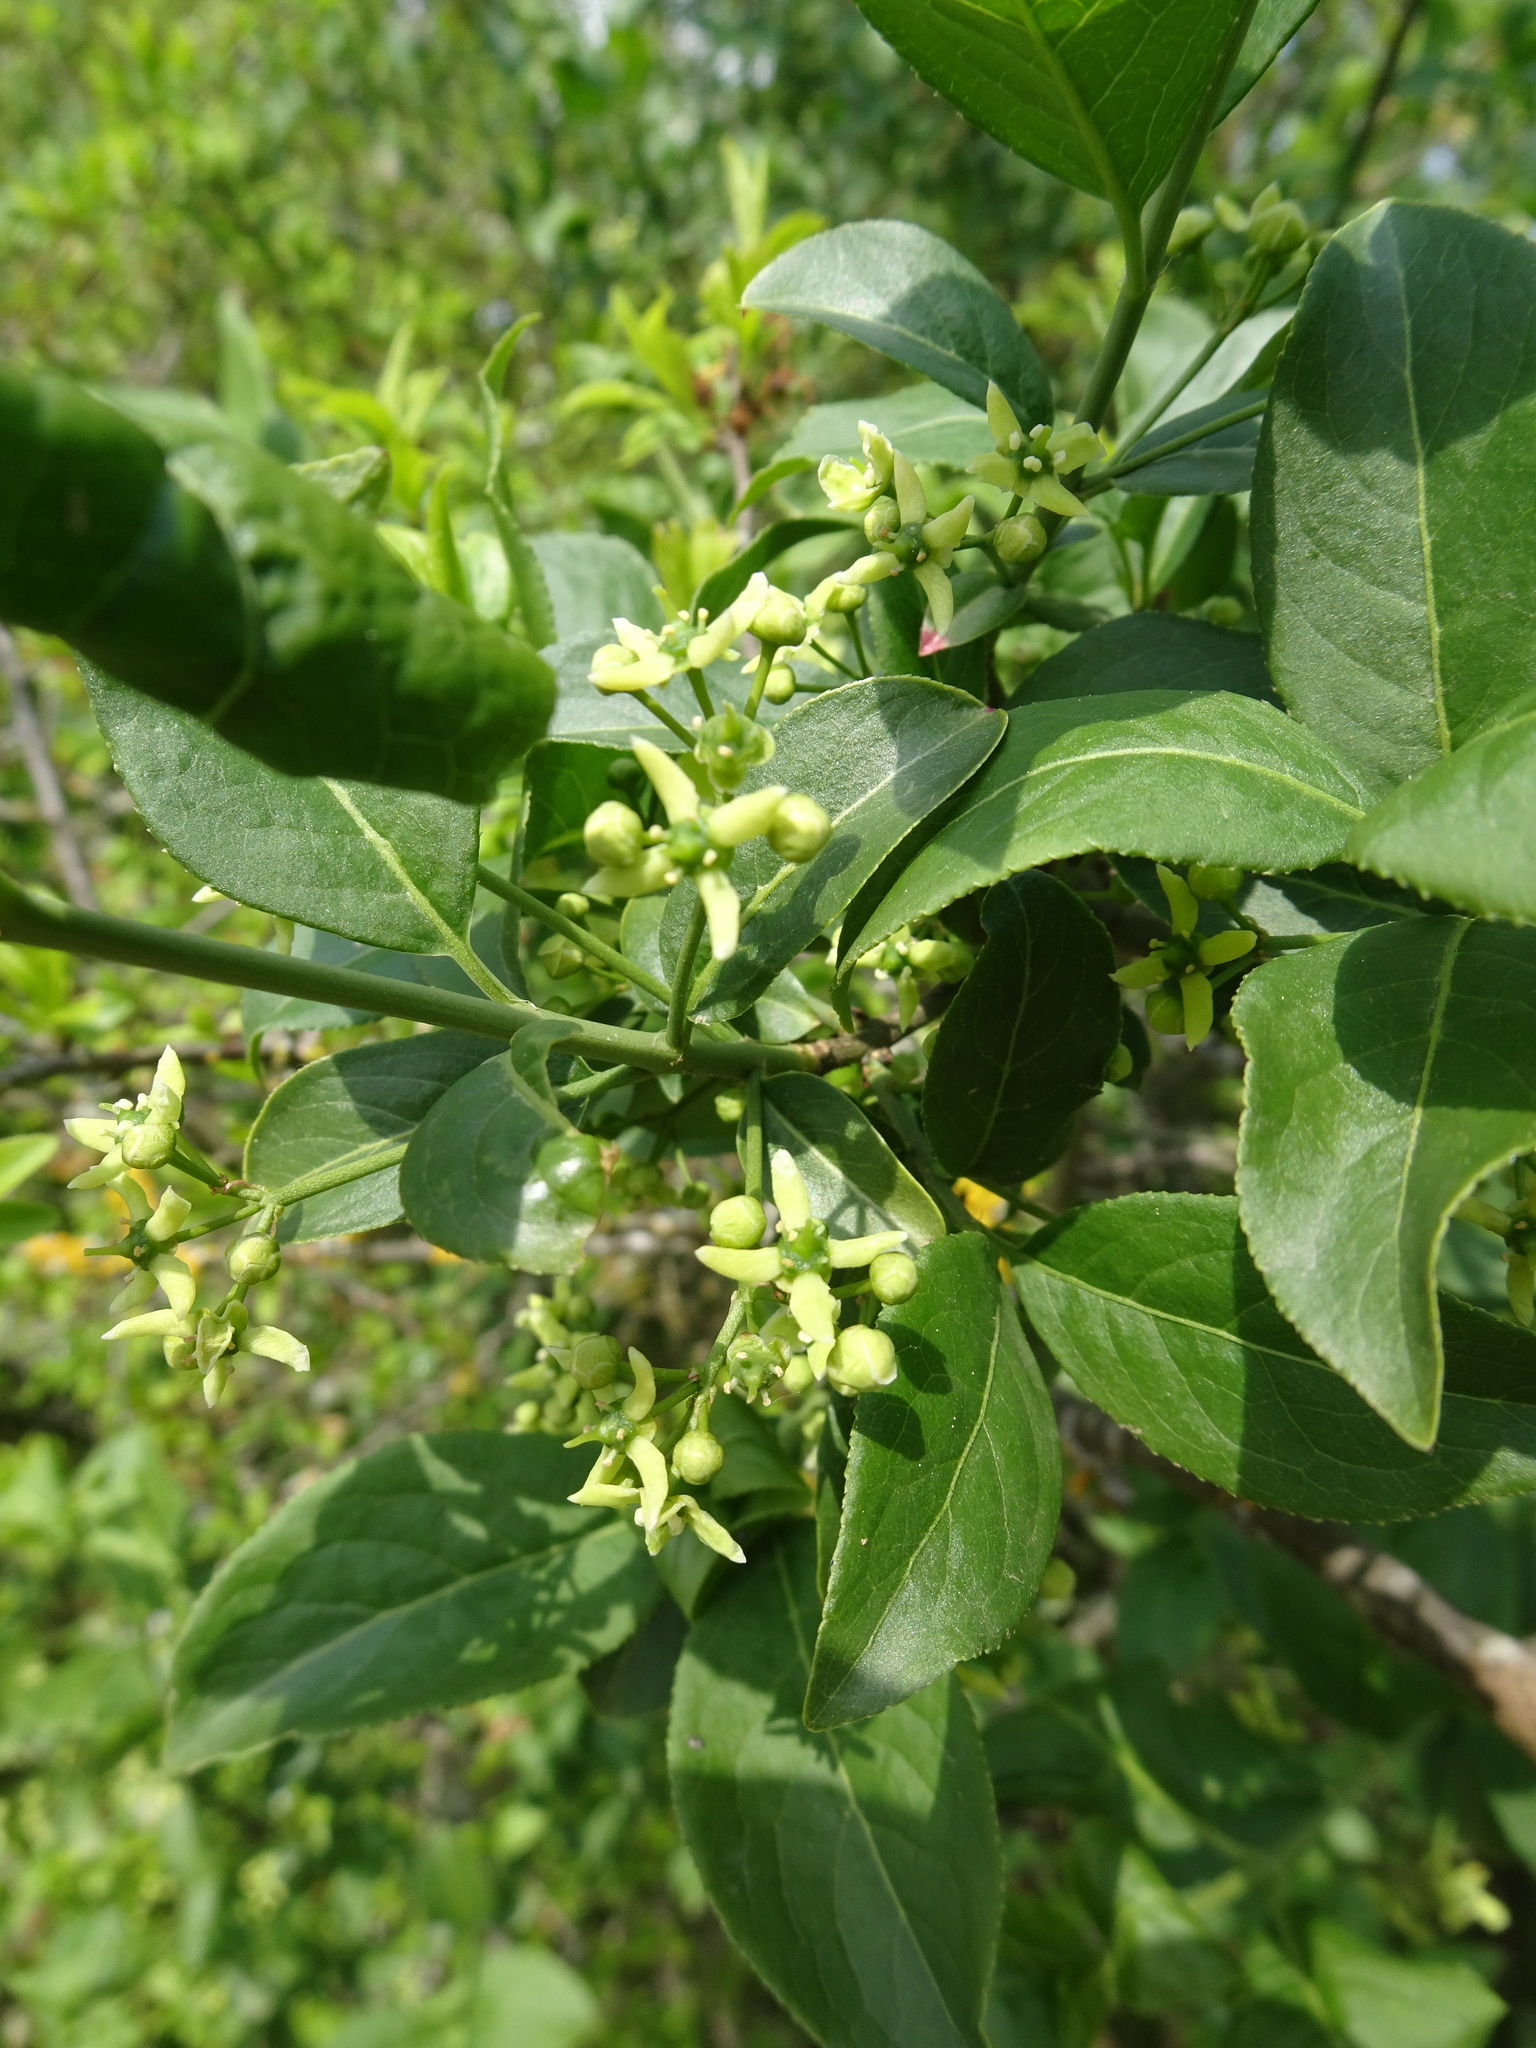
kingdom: Plantae
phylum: Tracheophyta
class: Magnoliopsida
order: Celastrales
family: Celastraceae
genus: Euonymus
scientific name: Euonymus europaeus
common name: Spindle
